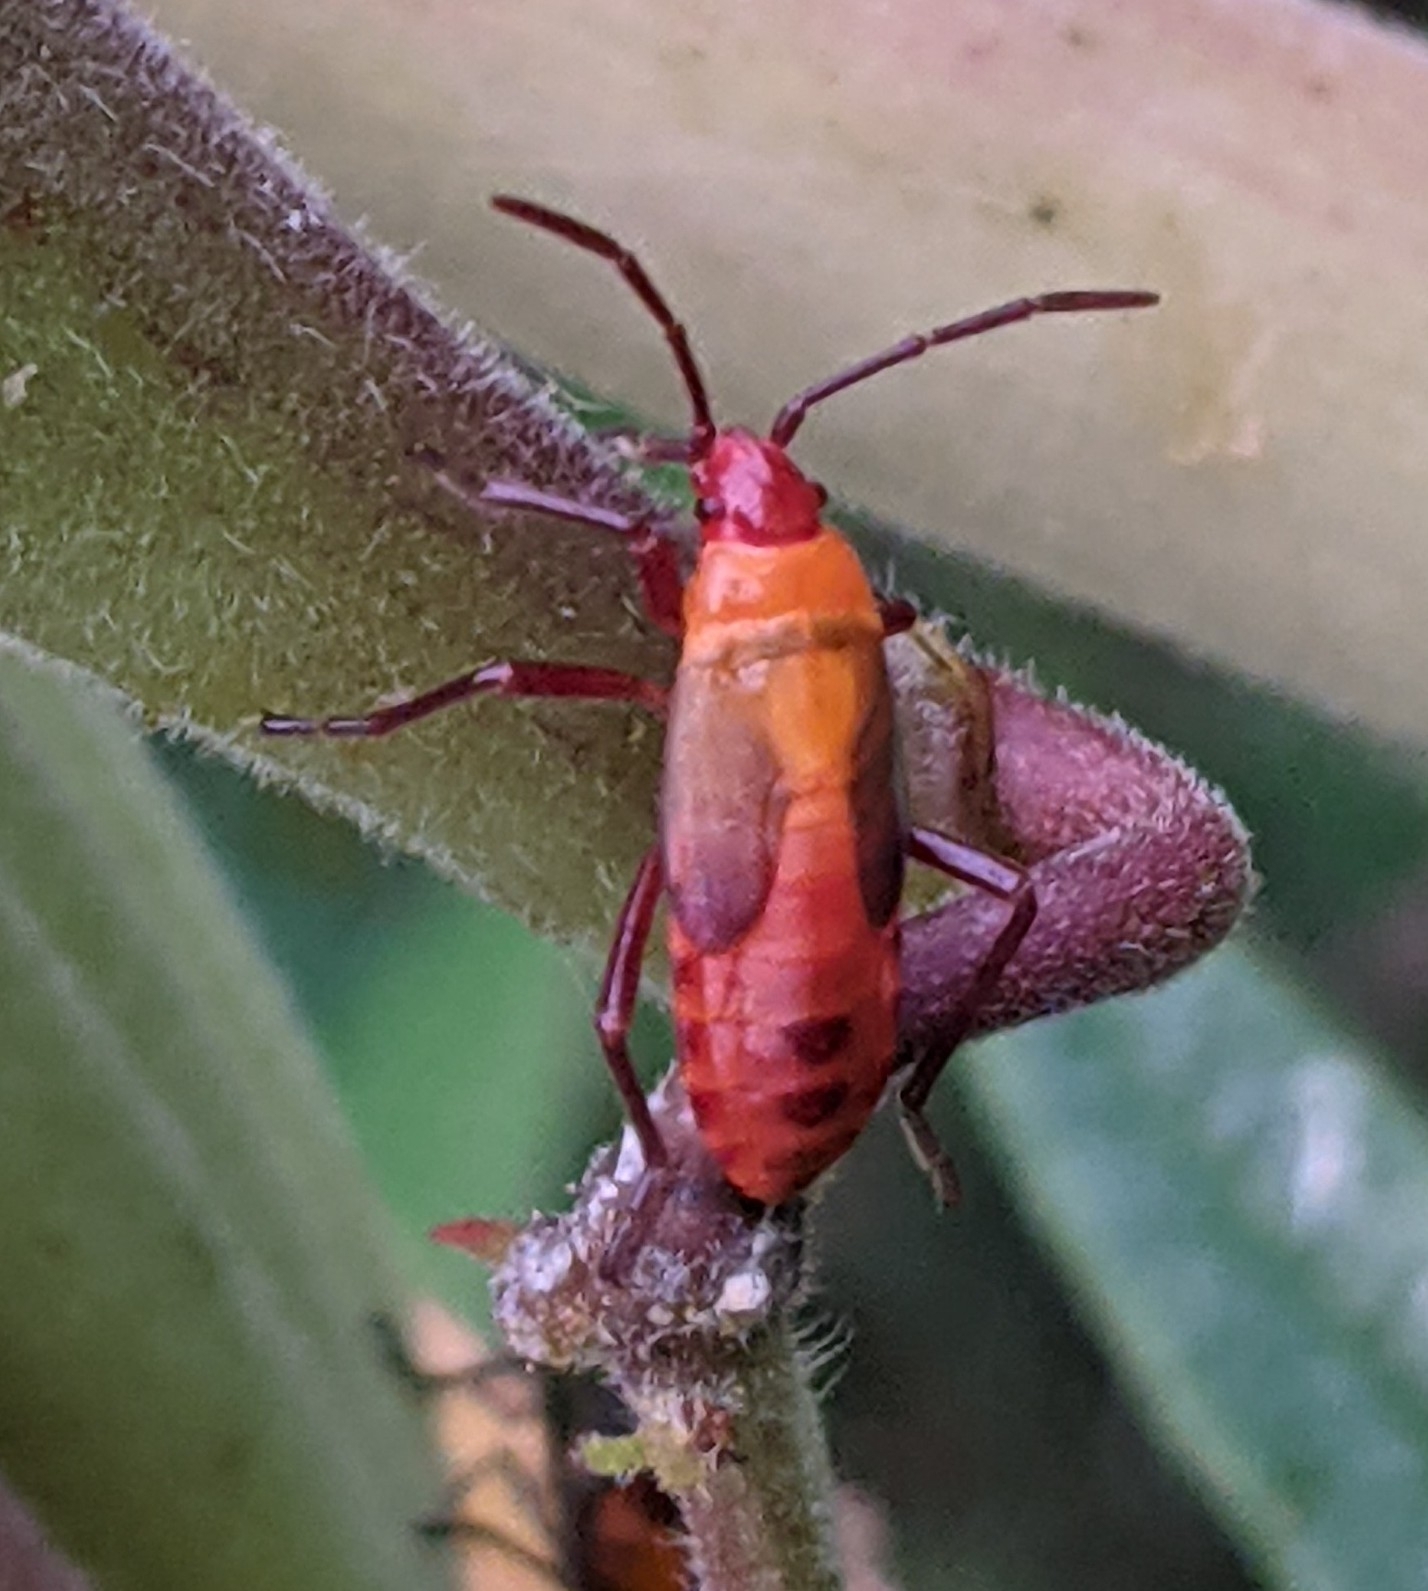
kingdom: Animalia
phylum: Arthropoda
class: Insecta
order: Hemiptera
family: Lygaeidae
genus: Oncopeltus
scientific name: Oncopeltus fasciatus
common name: Large milkweed bug
